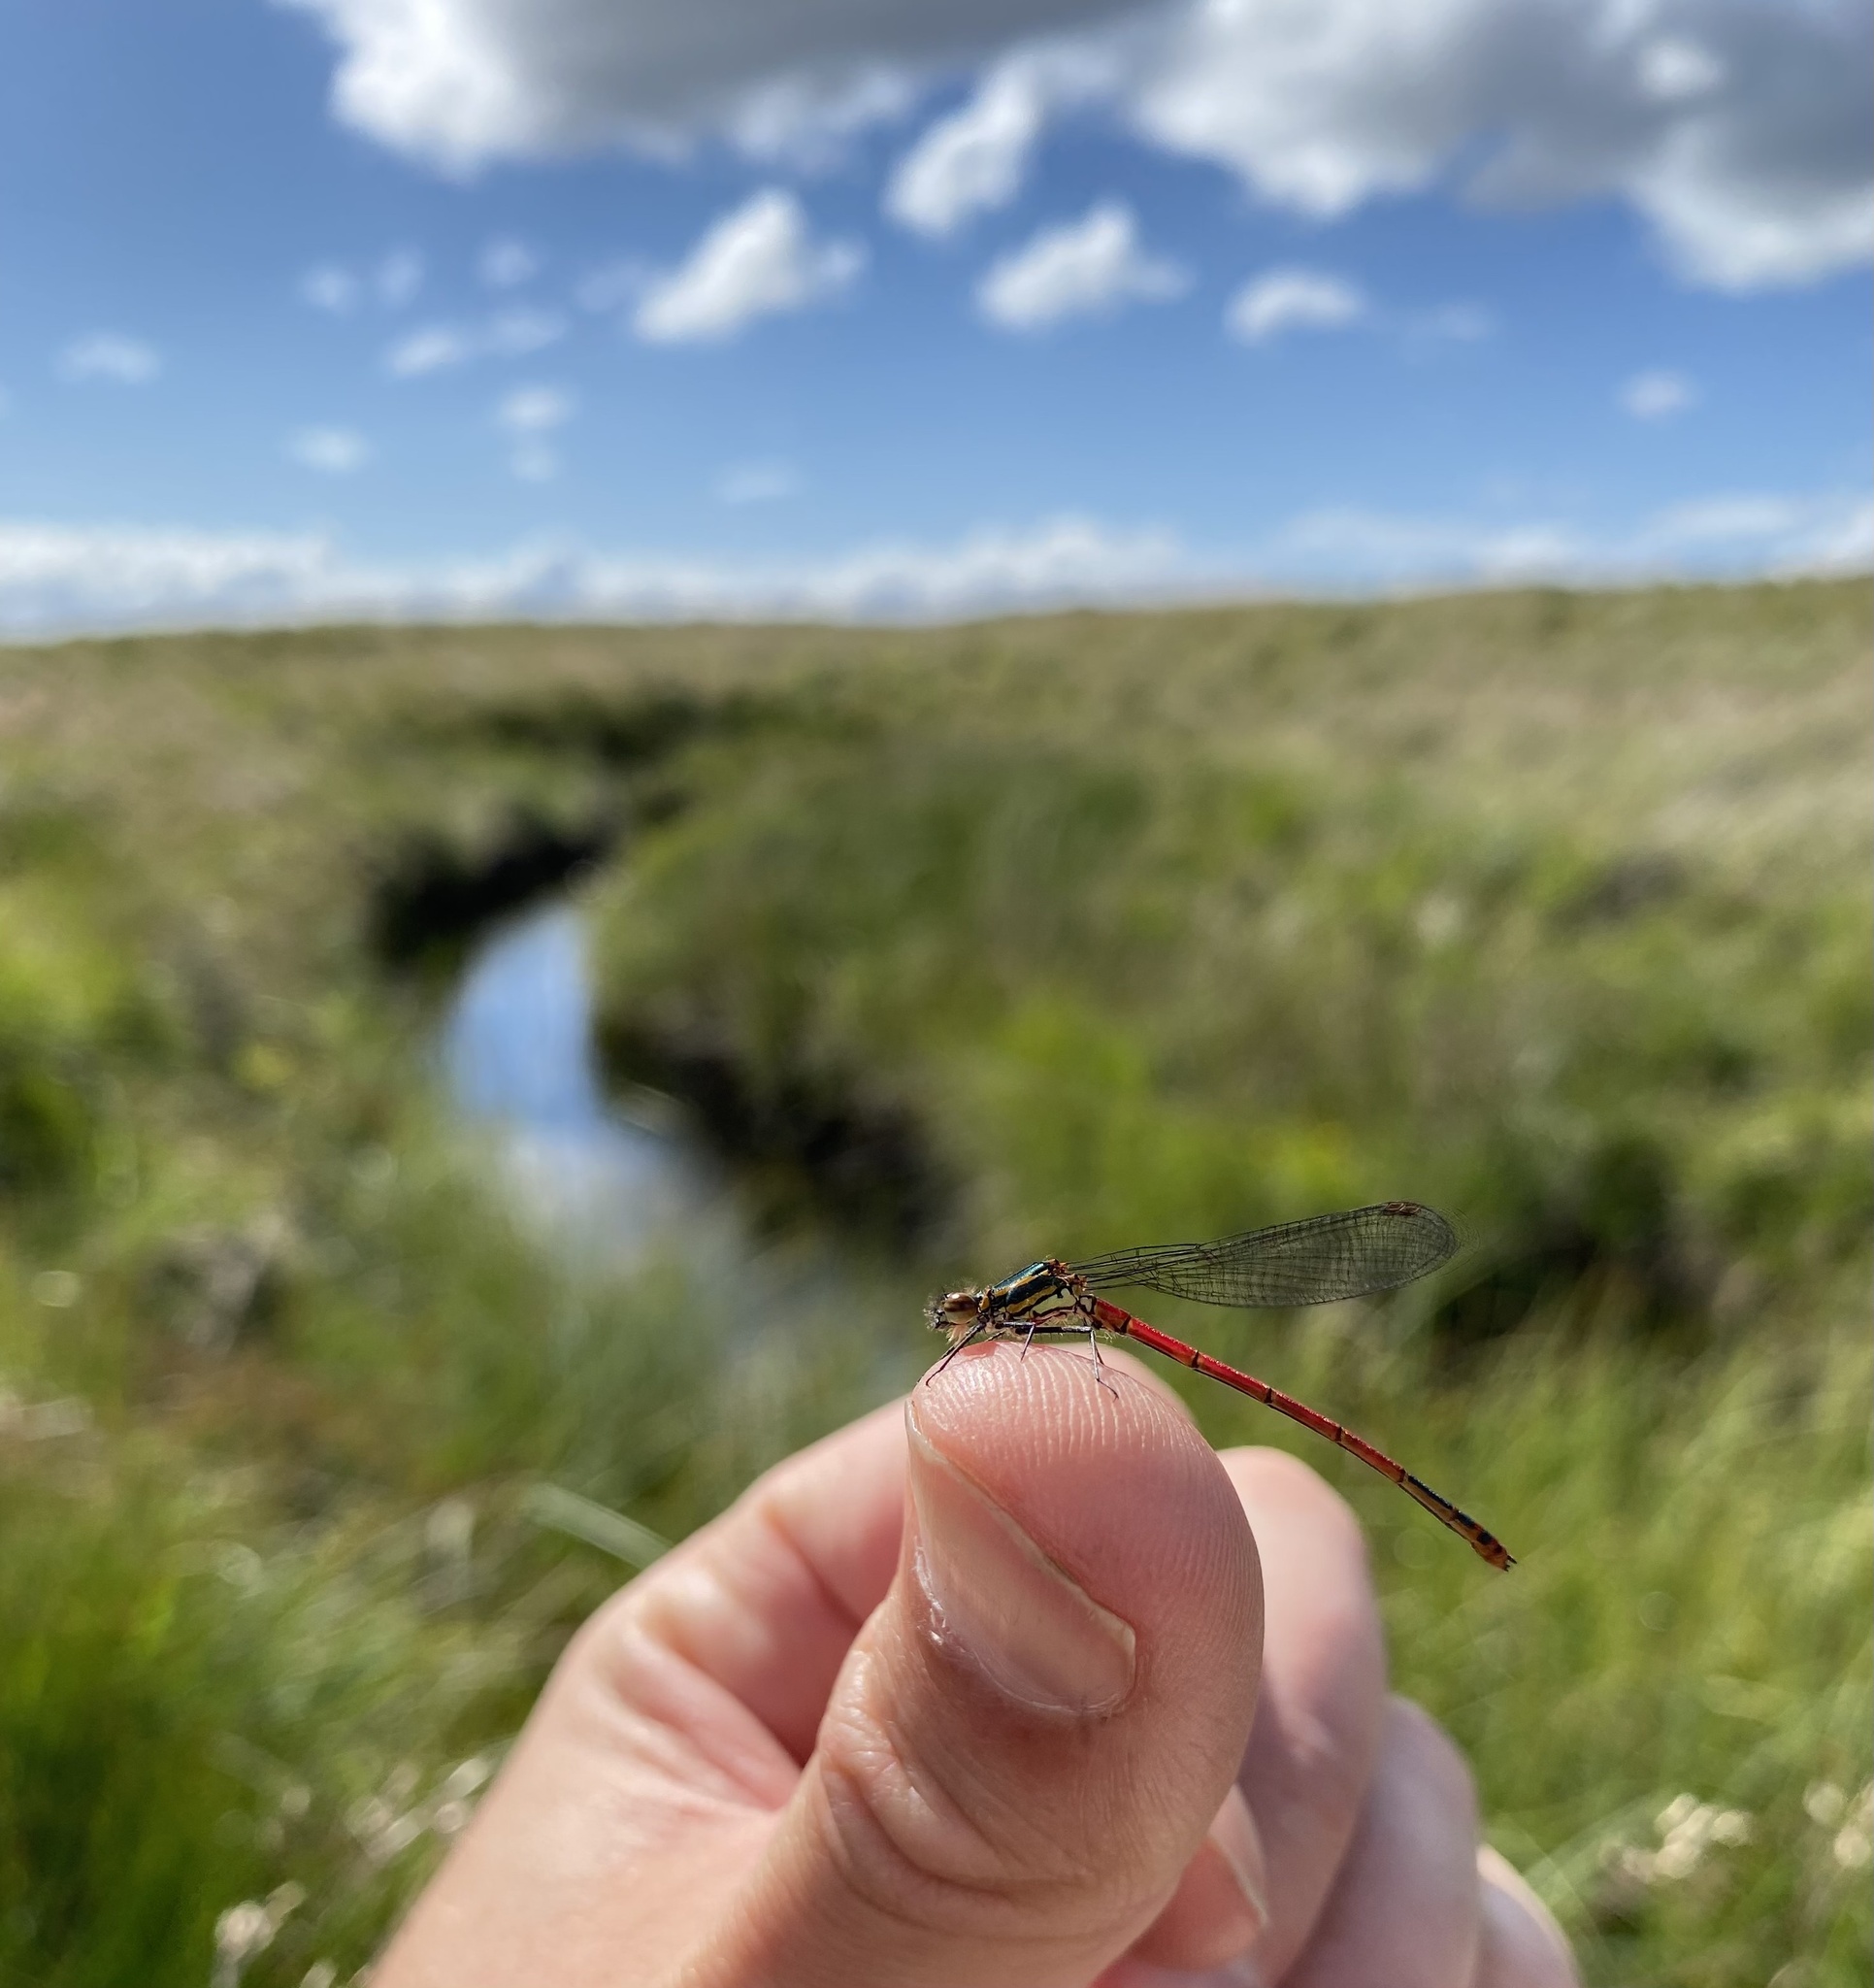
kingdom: Animalia
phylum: Arthropoda
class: Insecta
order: Odonata
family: Coenagrionidae
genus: Pyrrhosoma
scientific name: Pyrrhosoma nymphula
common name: Large red damsel
